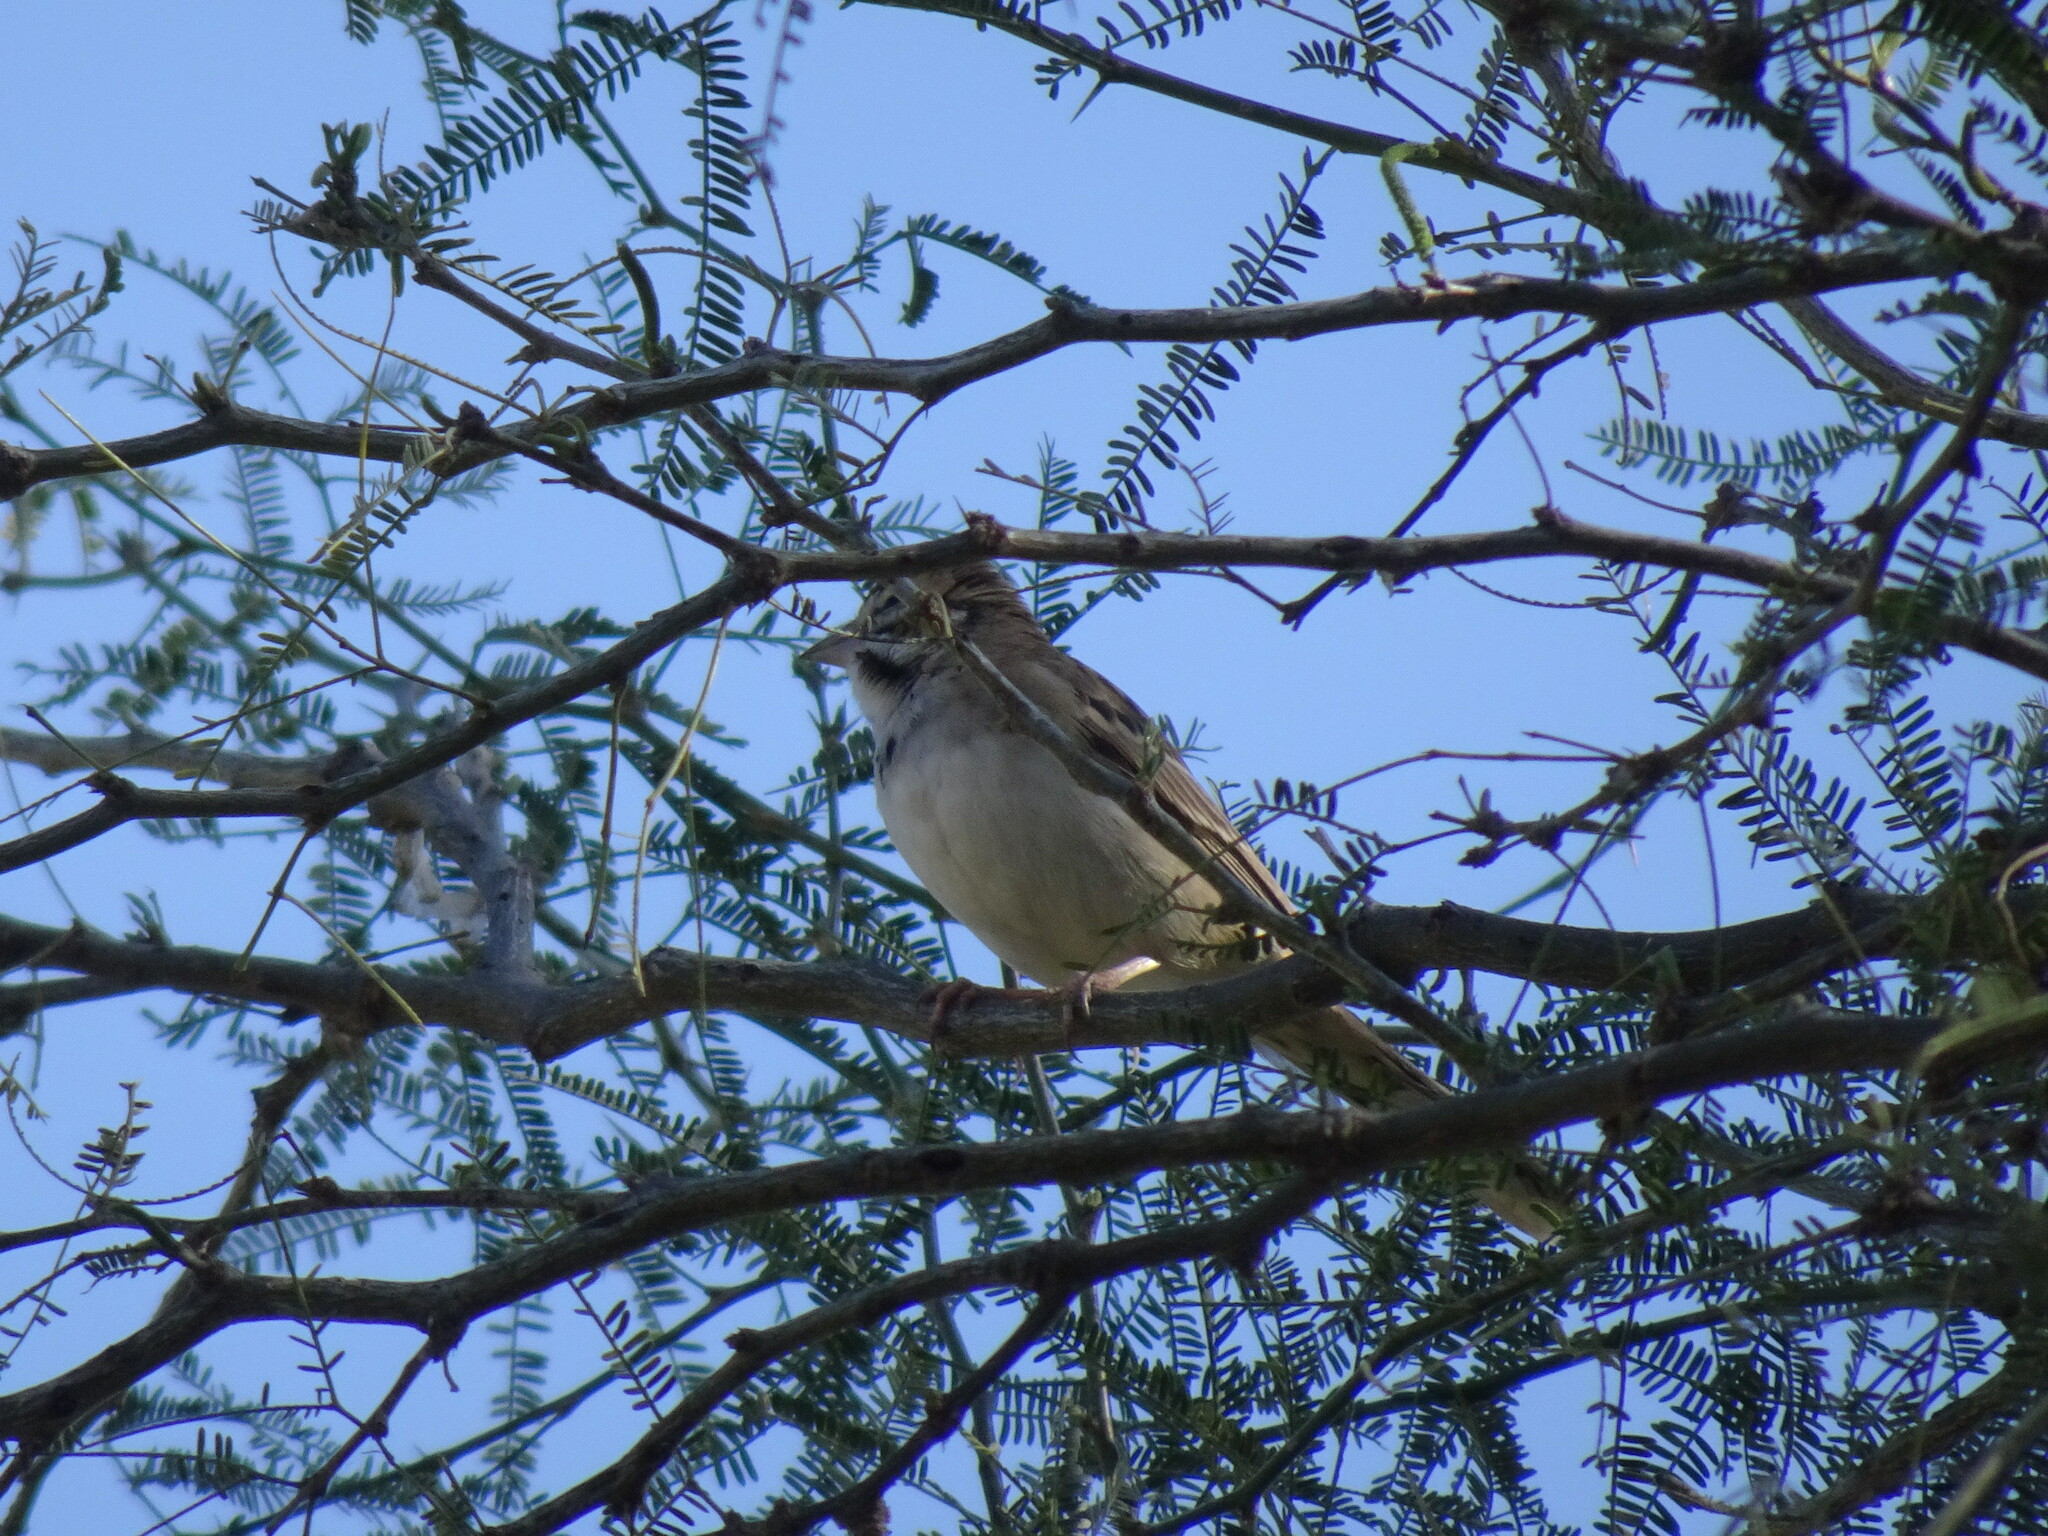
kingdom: Animalia
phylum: Chordata
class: Aves
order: Passeriformes
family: Passerellidae
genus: Chondestes
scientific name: Chondestes grammacus
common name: Lark sparrow
